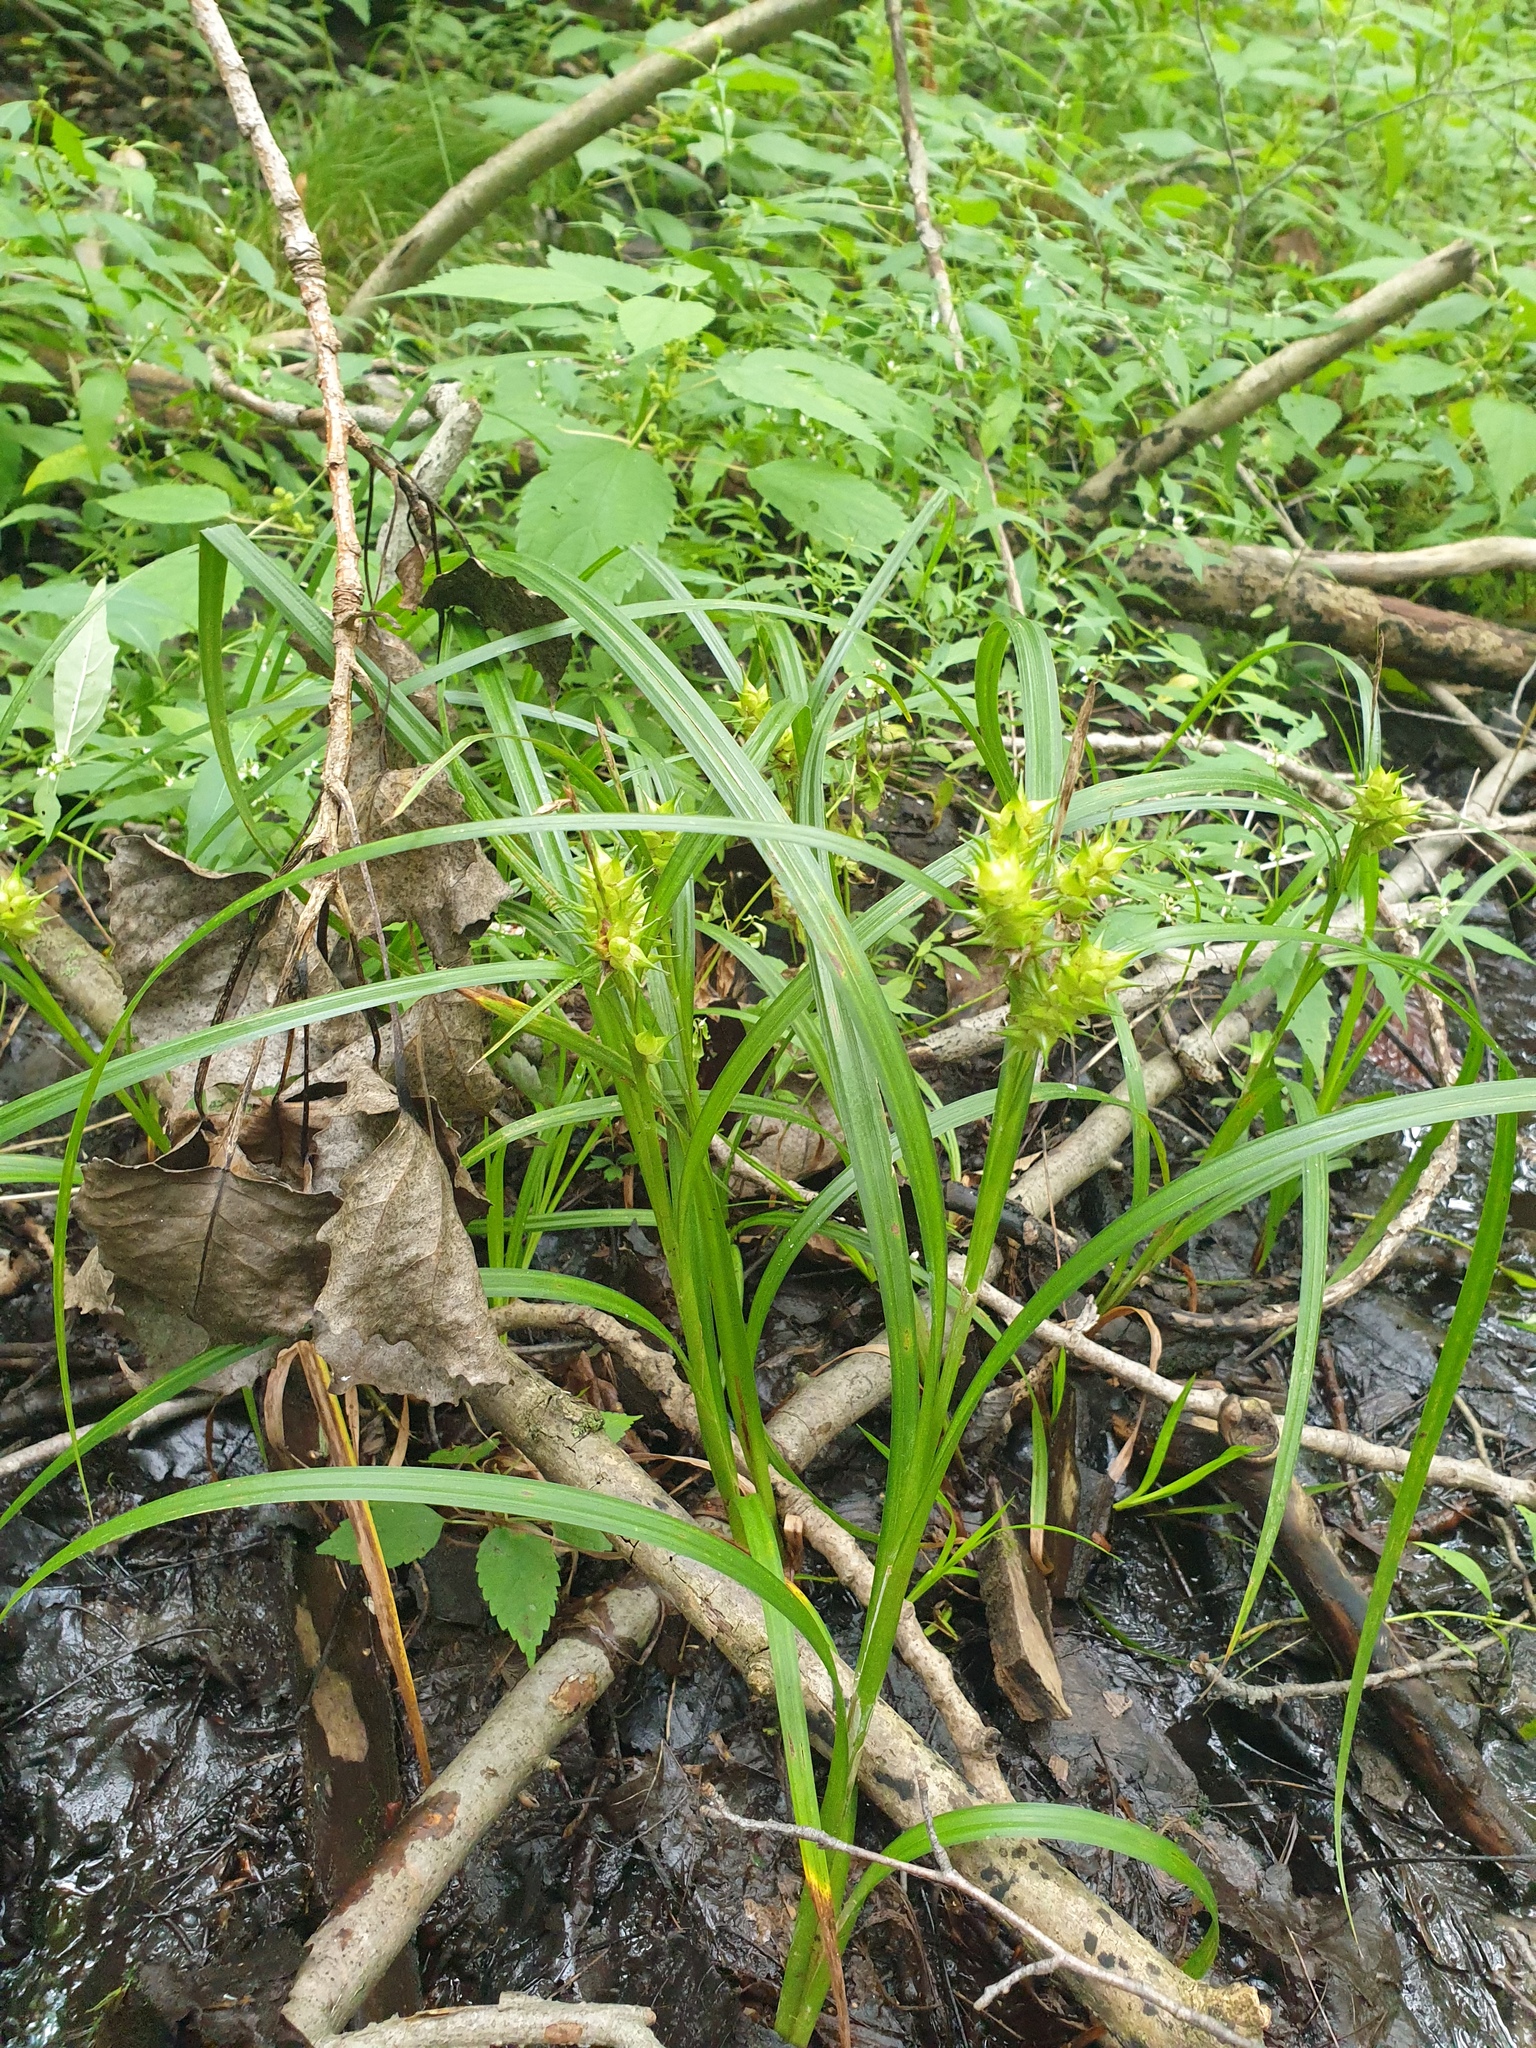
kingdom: Plantae
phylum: Tracheophyta
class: Liliopsida
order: Poales
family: Cyperaceae
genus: Carex
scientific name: Carex lupuliformis
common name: False hop sedge
